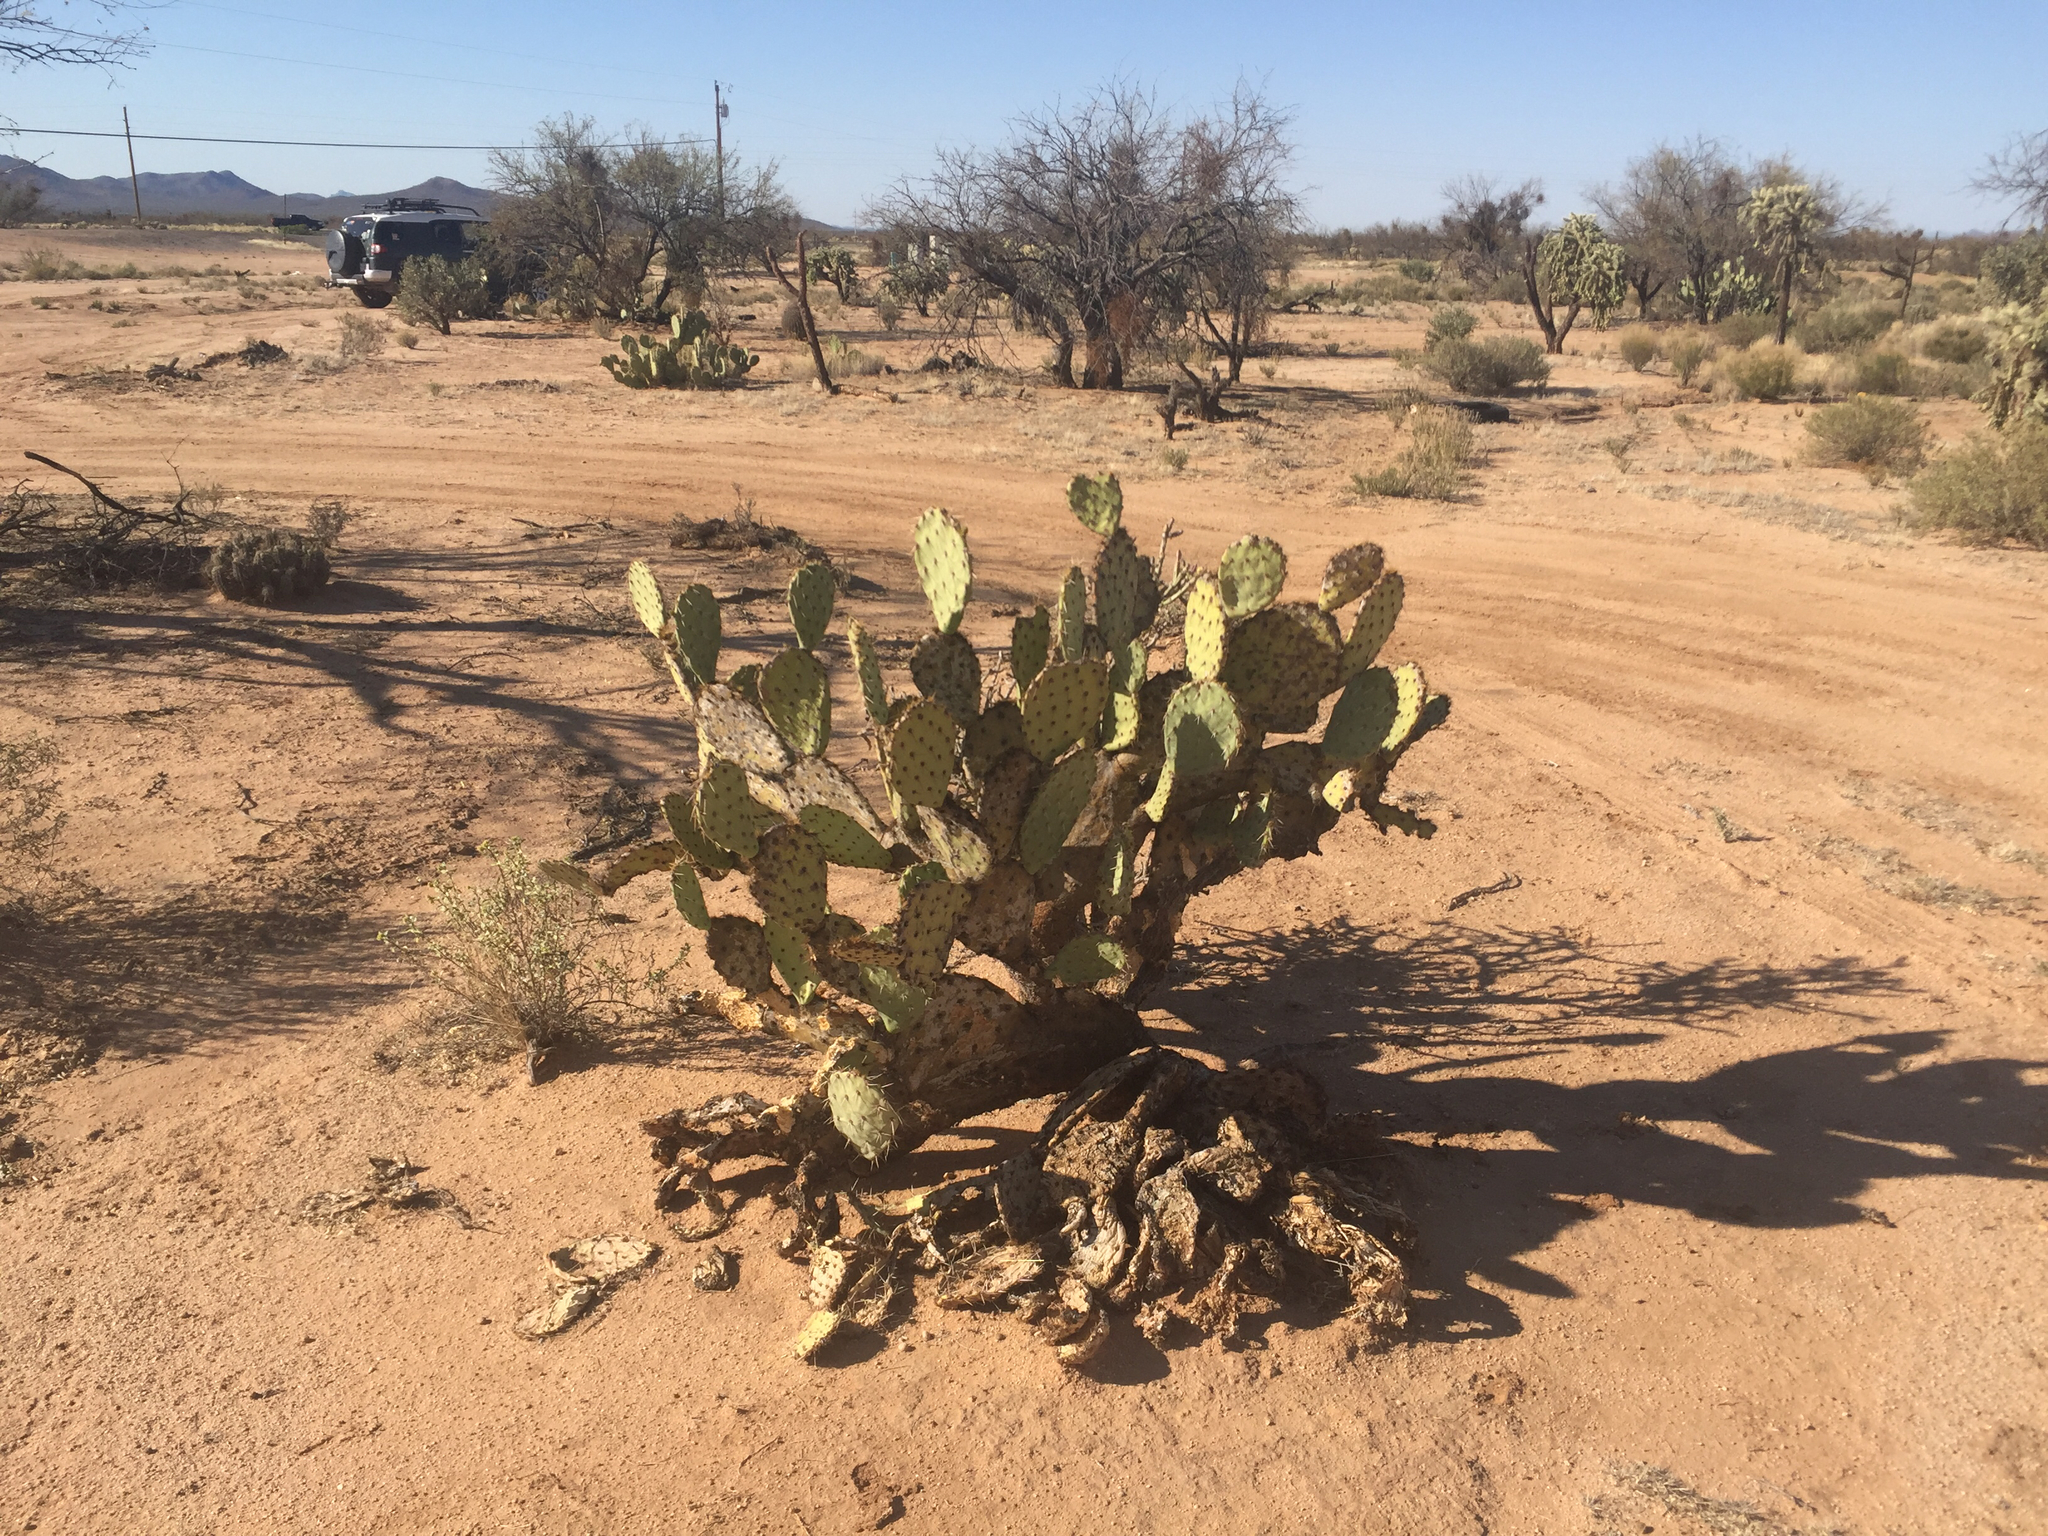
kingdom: Plantae
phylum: Tracheophyta
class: Magnoliopsida
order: Caryophyllales
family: Cactaceae
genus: Opuntia
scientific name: Opuntia engelmannii
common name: Cactus-apple
